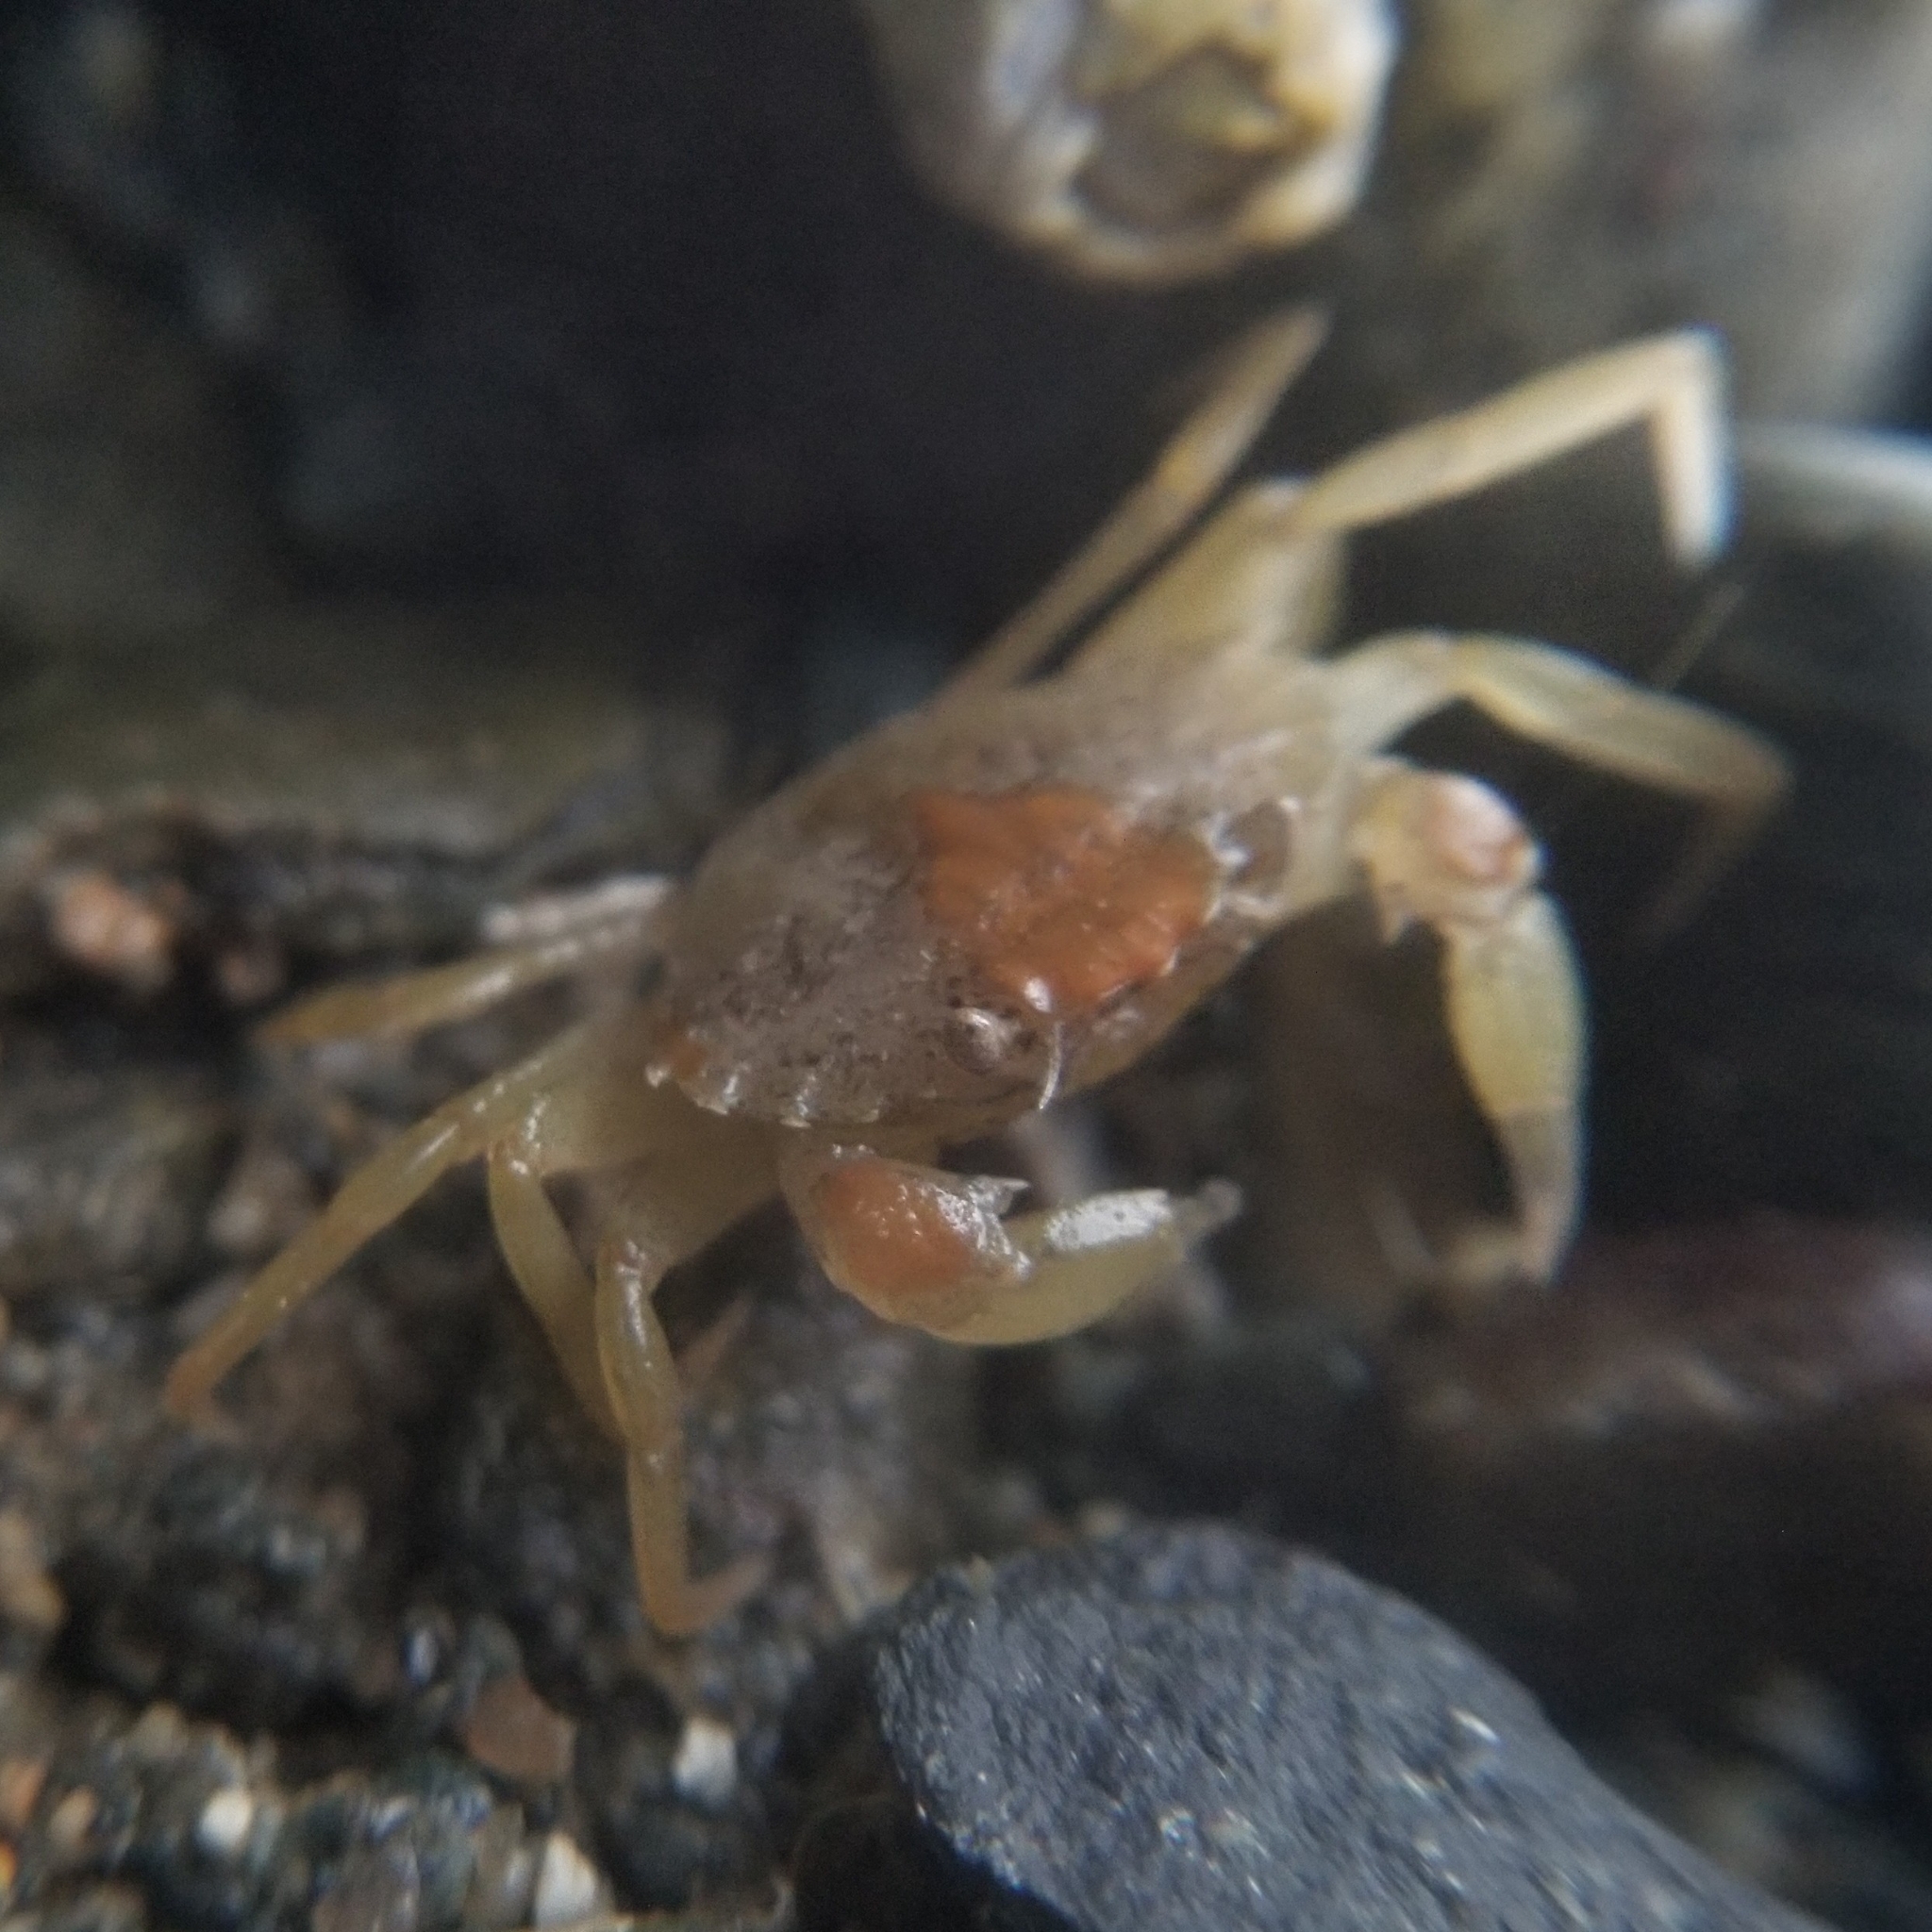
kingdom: Animalia
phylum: Arthropoda
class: Malacostraca
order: Decapoda
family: Carcinidae
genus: Carcinus
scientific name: Carcinus maenas
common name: European green crab
